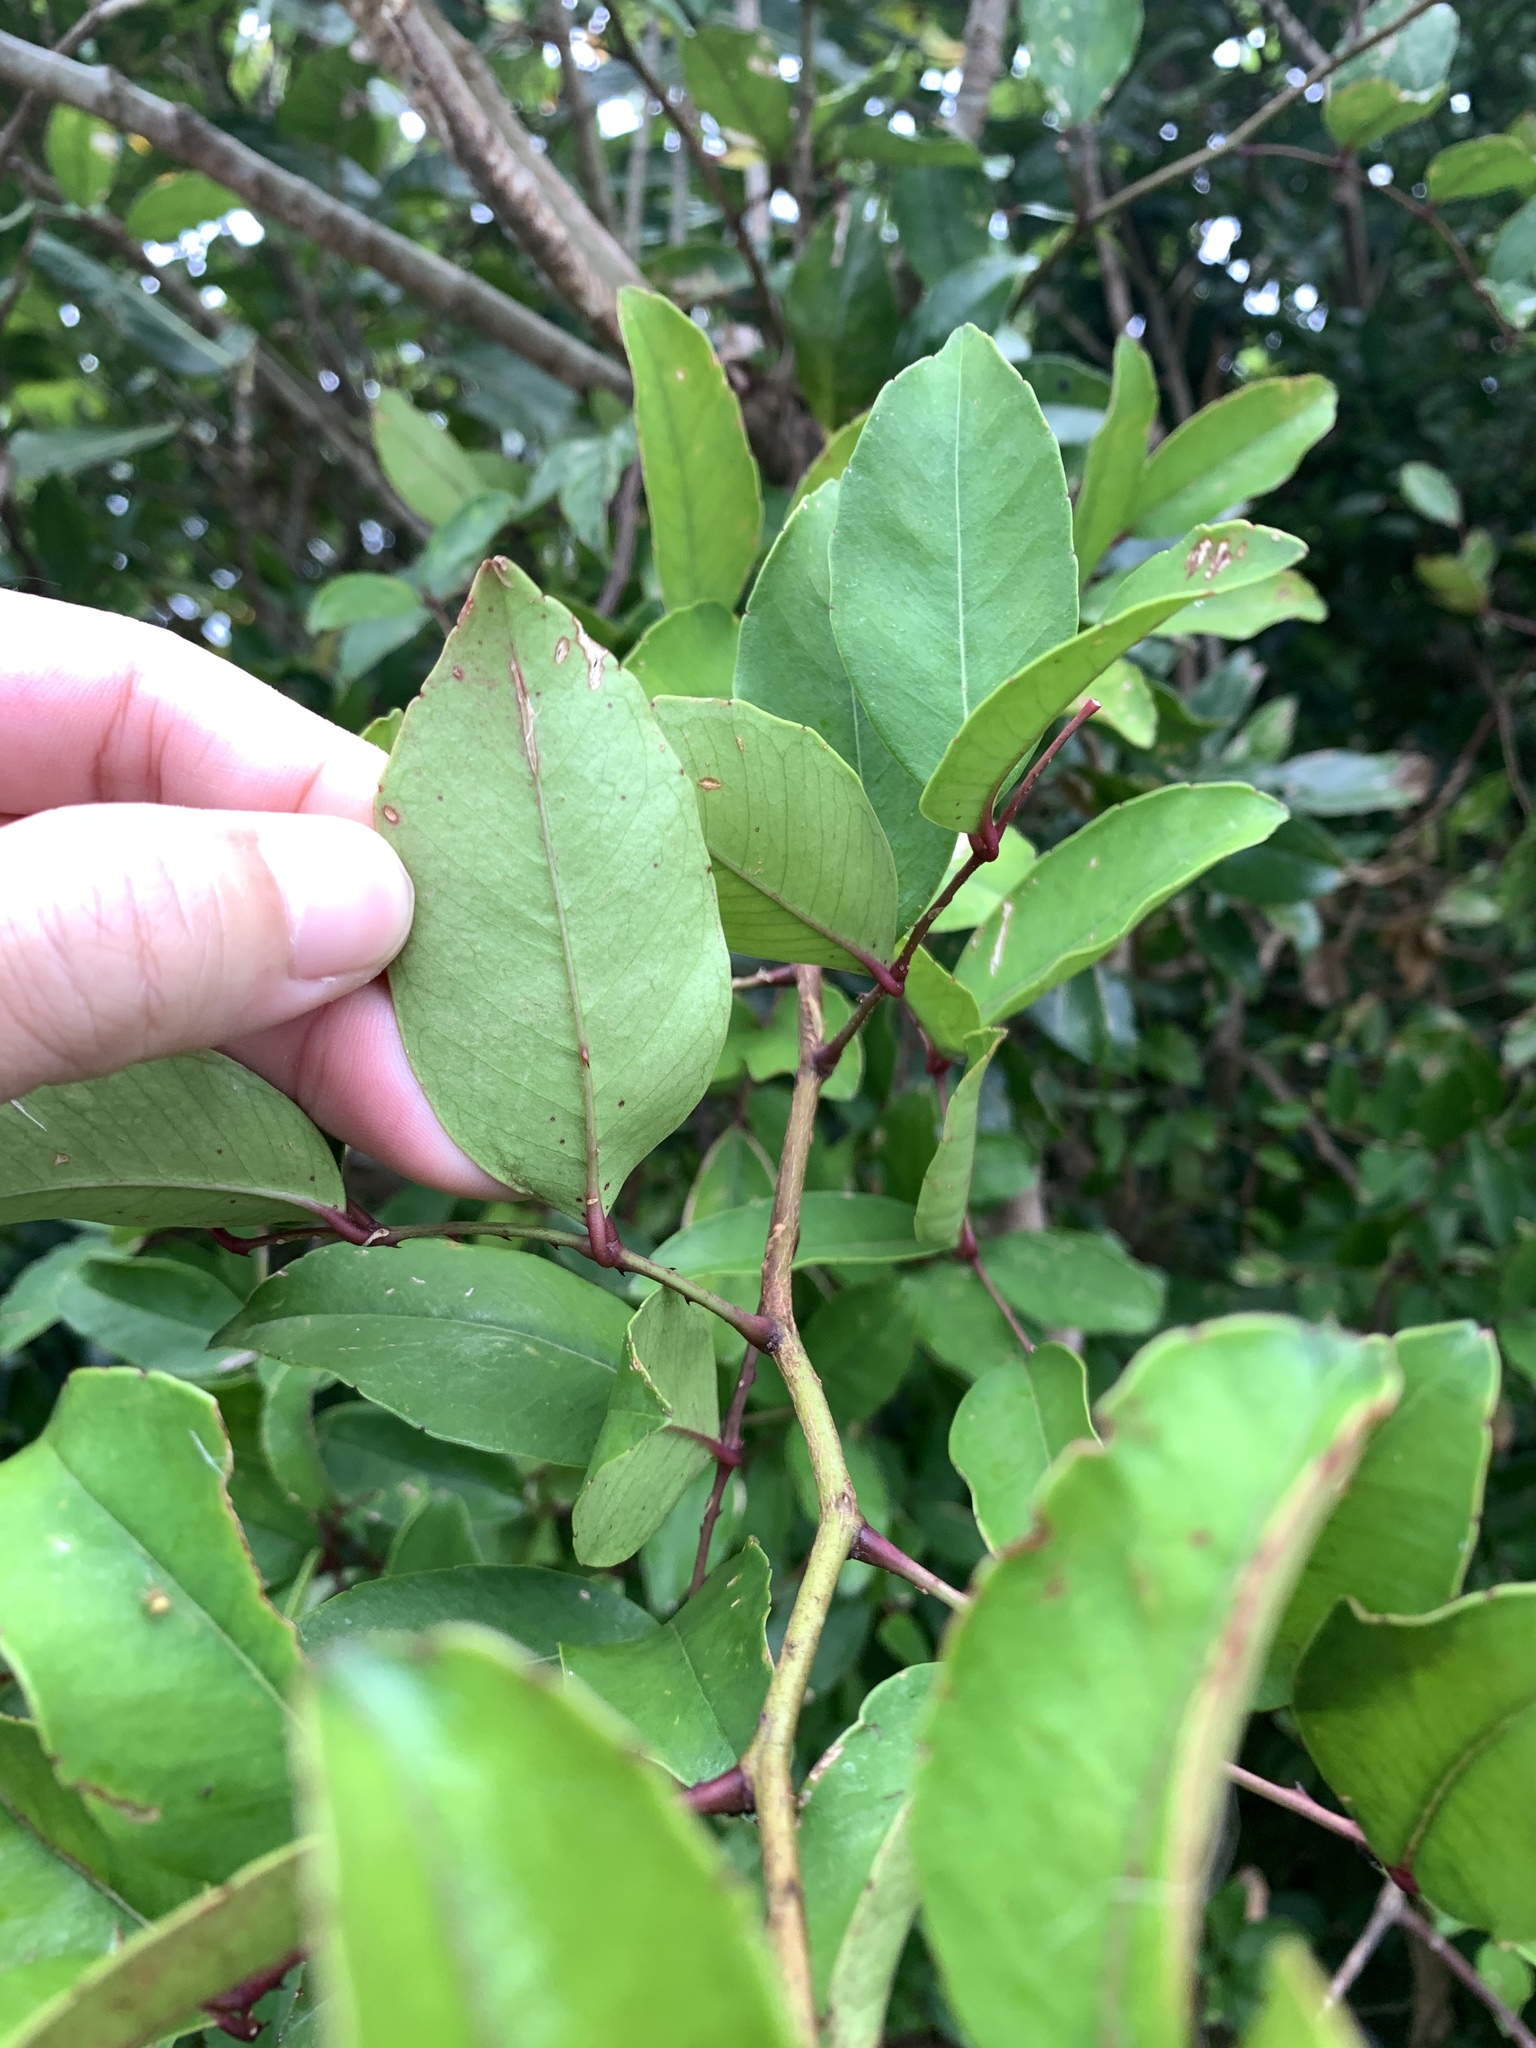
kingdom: Plantae
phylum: Tracheophyta
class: Magnoliopsida
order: Sapindales
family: Rutaceae
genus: Zanthoxylum
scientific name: Zanthoxylum nitidum
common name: Shiny-leaf prickly-ash
